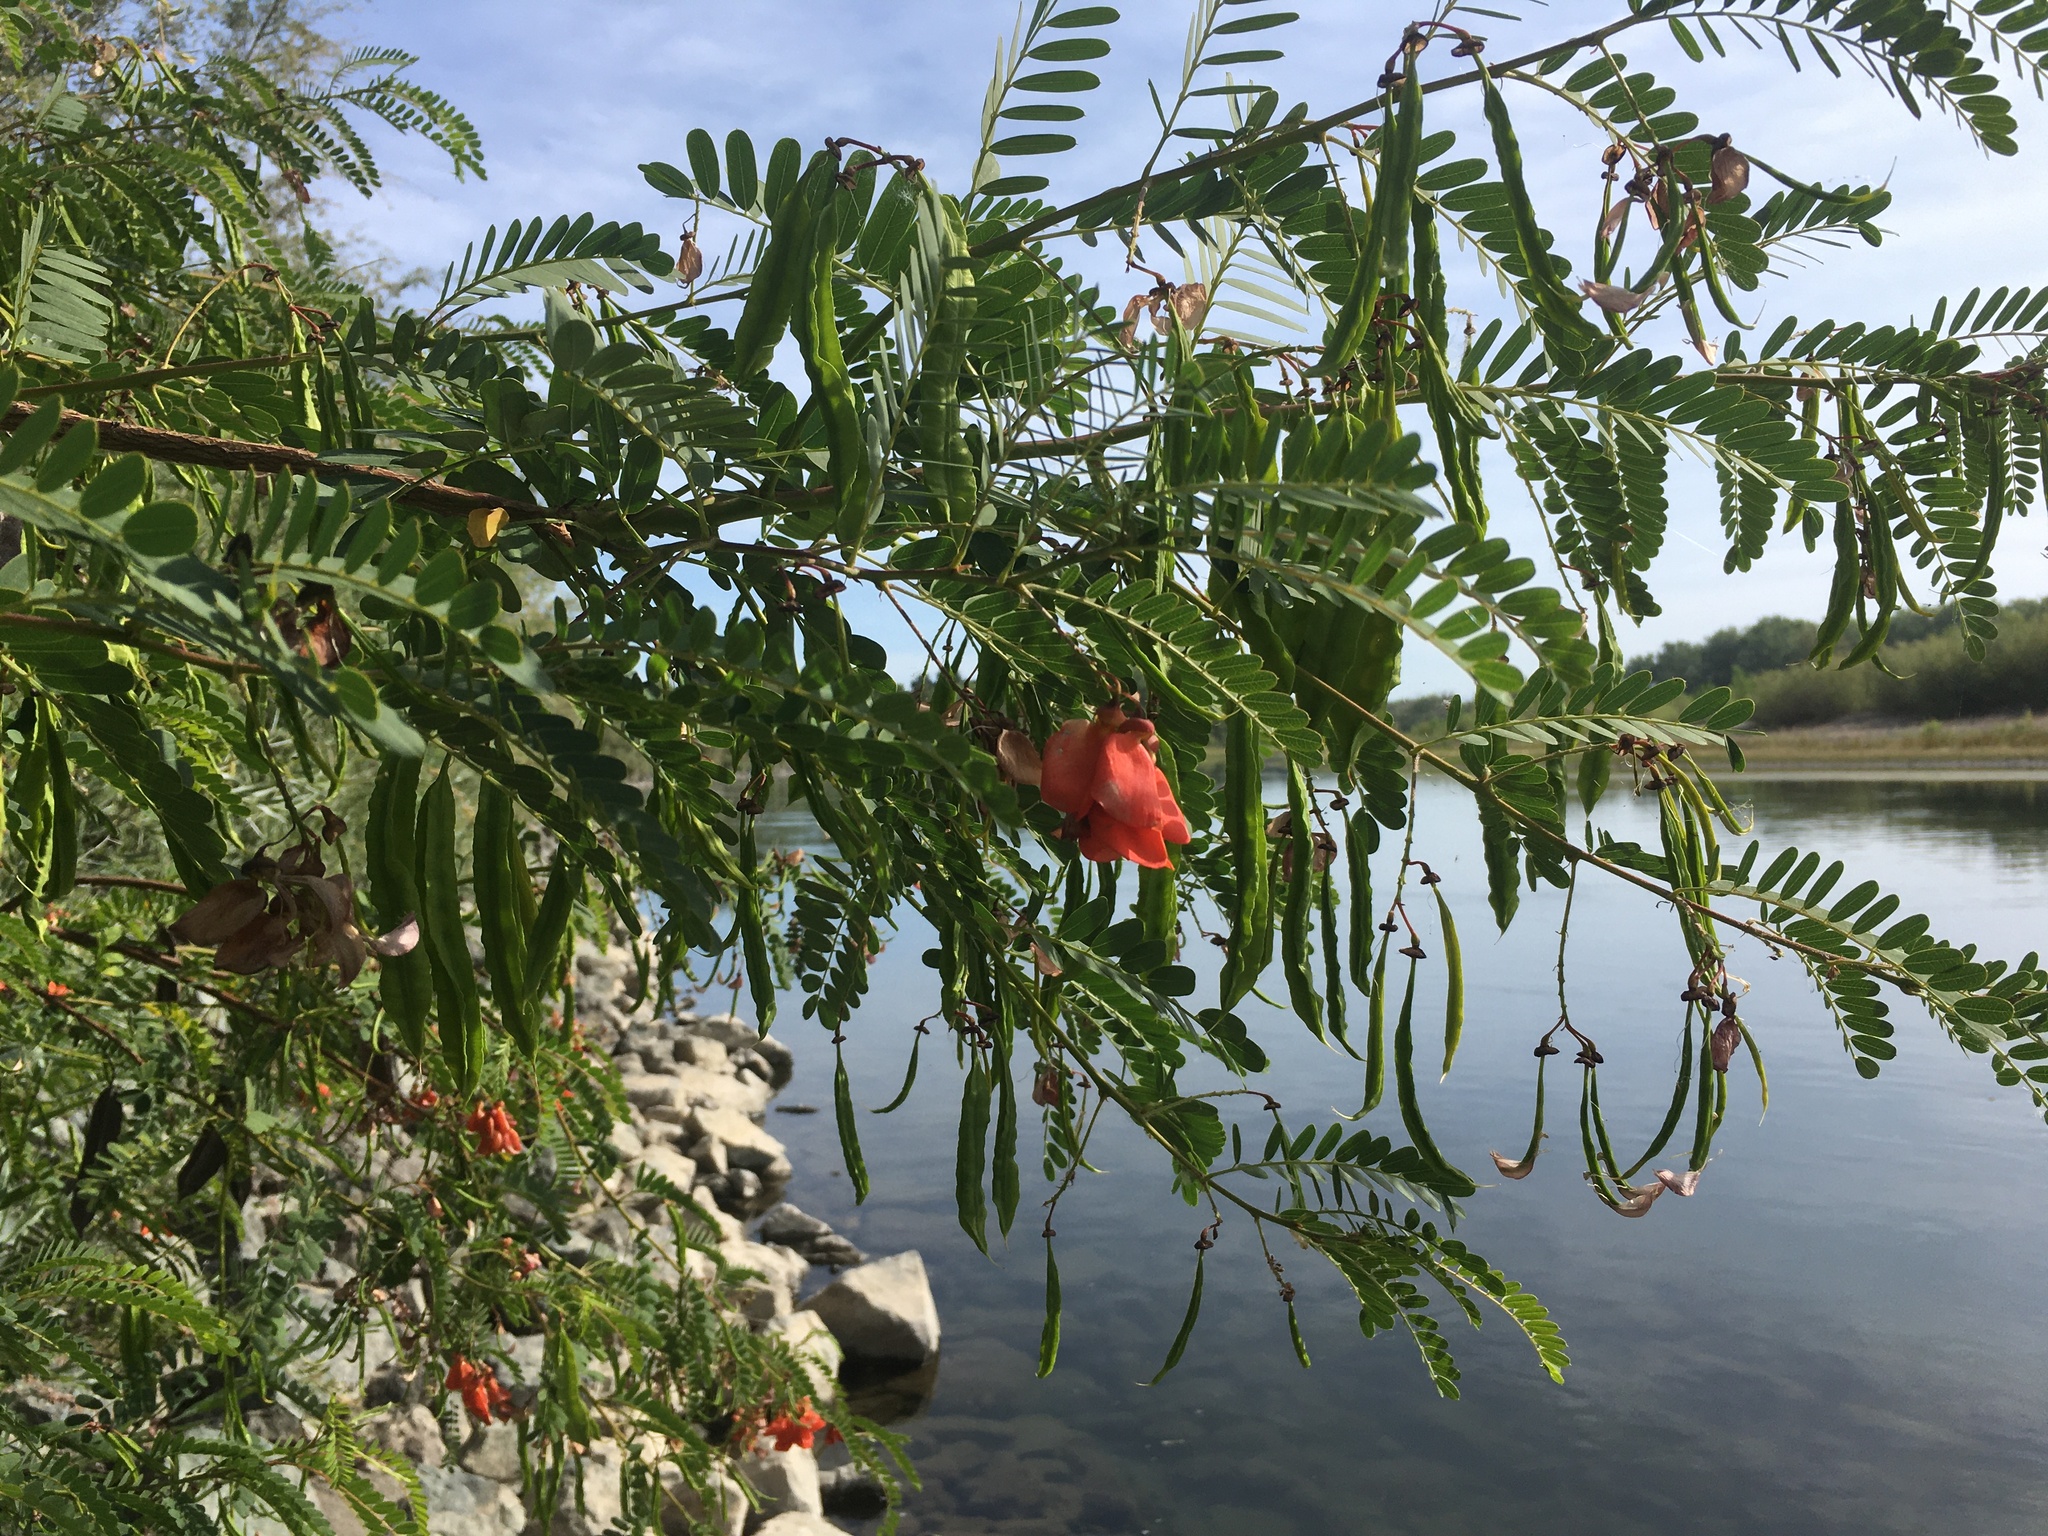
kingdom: Plantae
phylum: Tracheophyta
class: Magnoliopsida
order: Fabales
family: Fabaceae
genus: Sesbania
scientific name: Sesbania punicea
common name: Rattlebox
